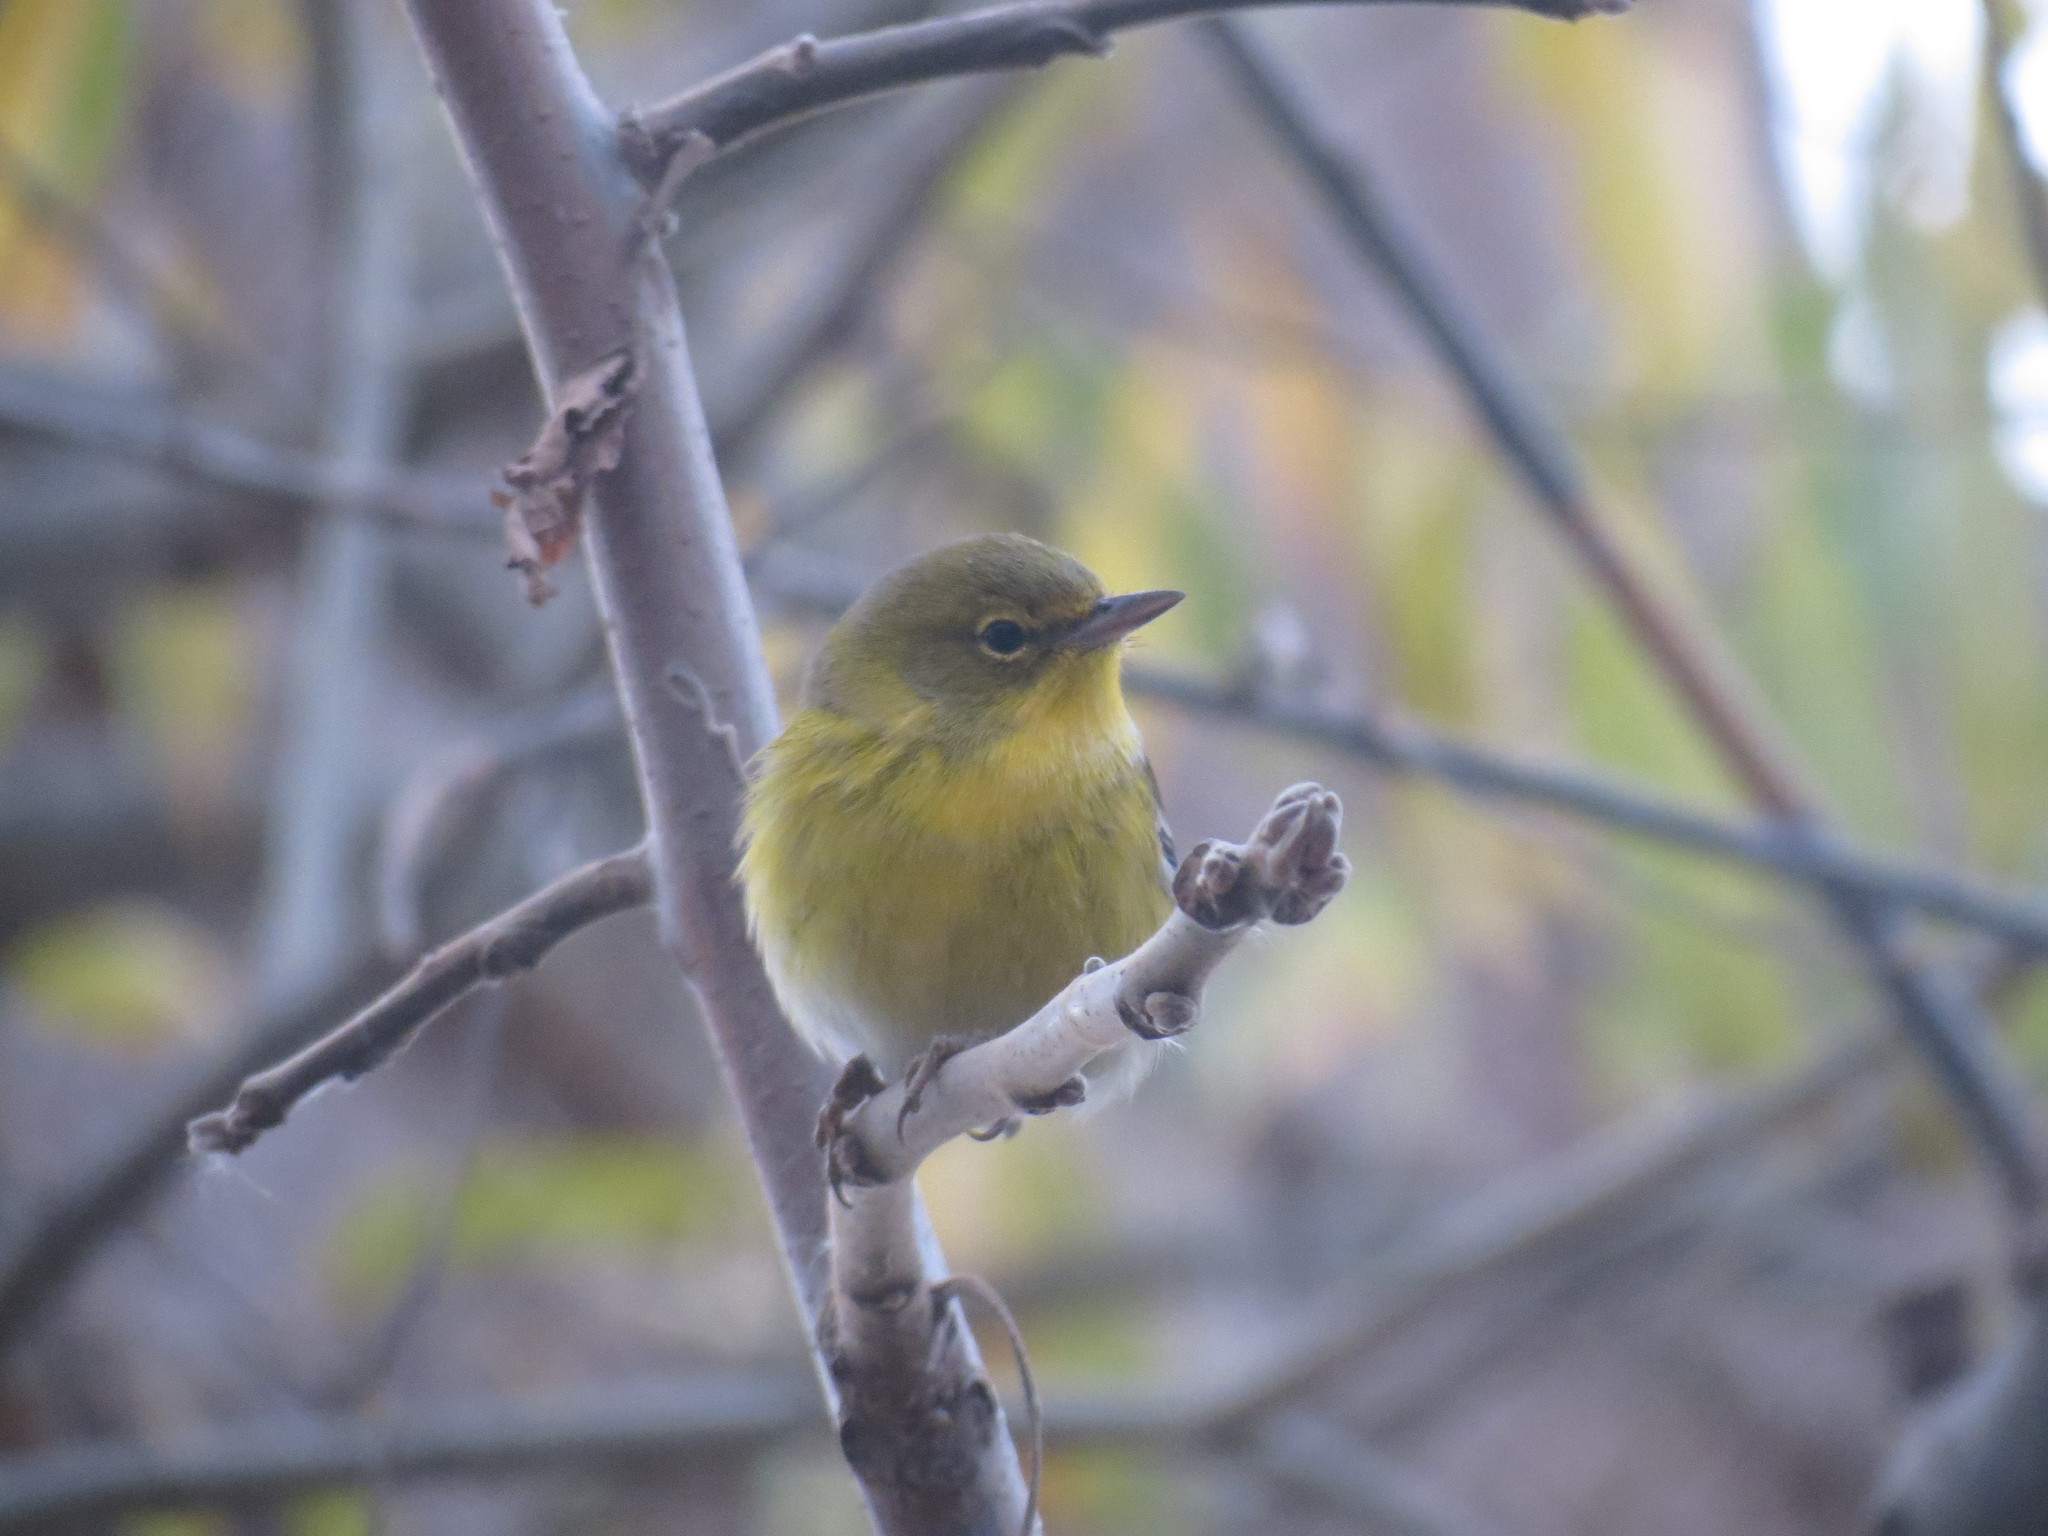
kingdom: Animalia
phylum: Chordata
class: Aves
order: Passeriformes
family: Parulidae
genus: Setophaga
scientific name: Setophaga pinus
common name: Pine warbler
